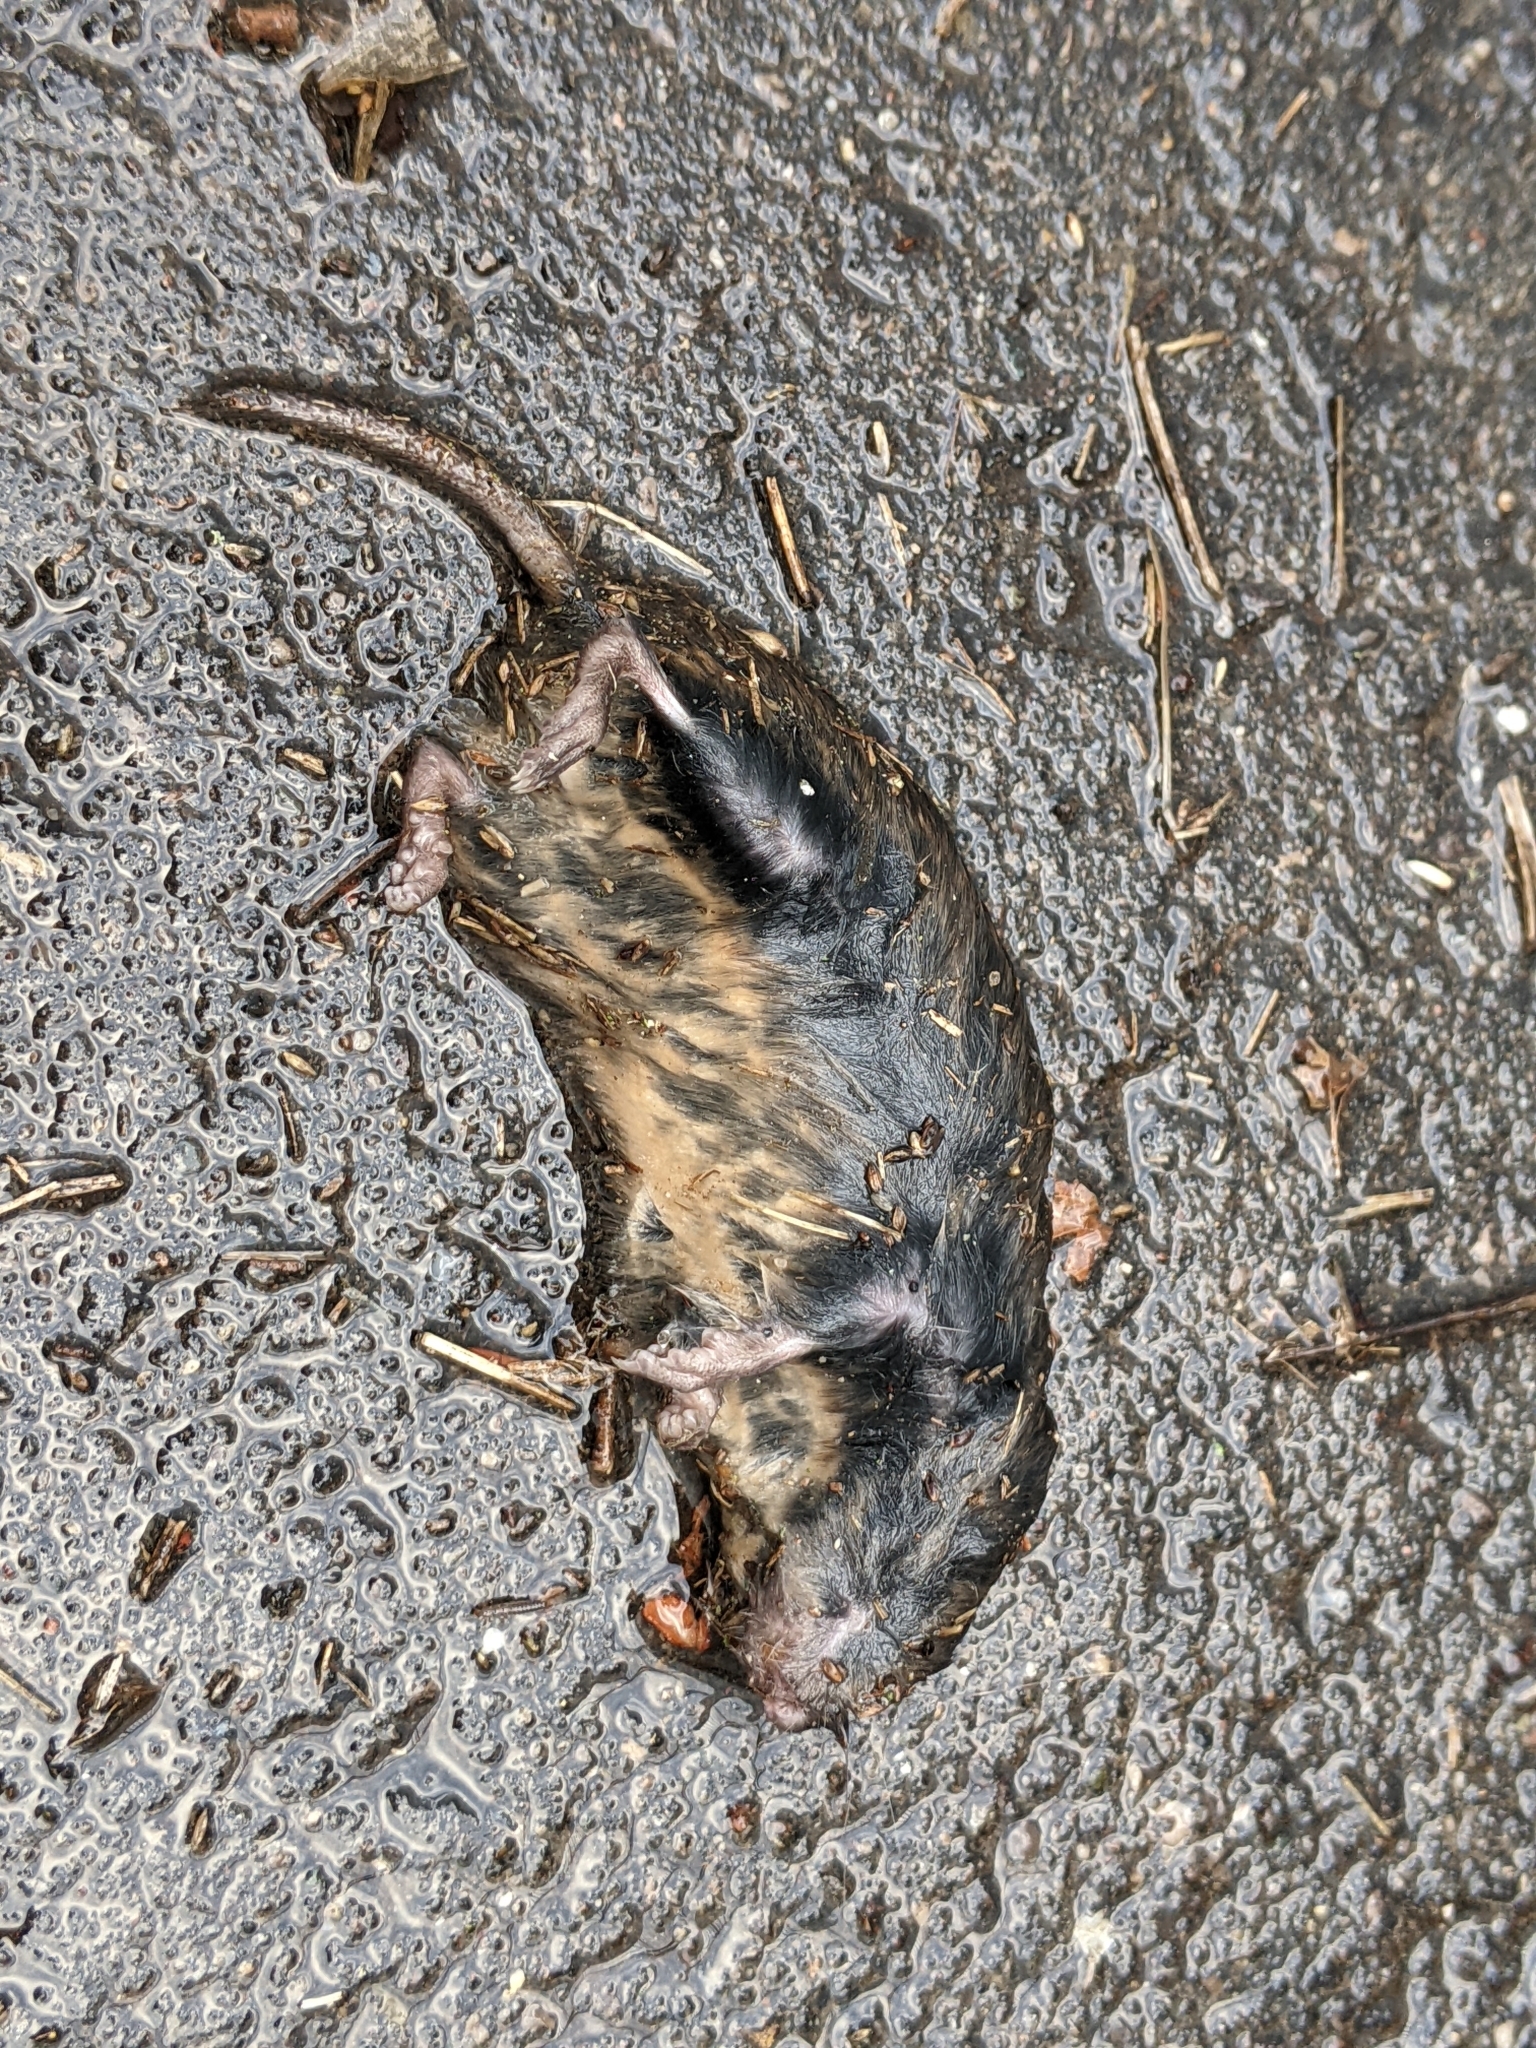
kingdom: Animalia
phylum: Chordata
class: Mammalia
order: Rodentia
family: Cricetidae
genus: Microtus
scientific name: Microtus pennsylvanicus
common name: Meadow vole
